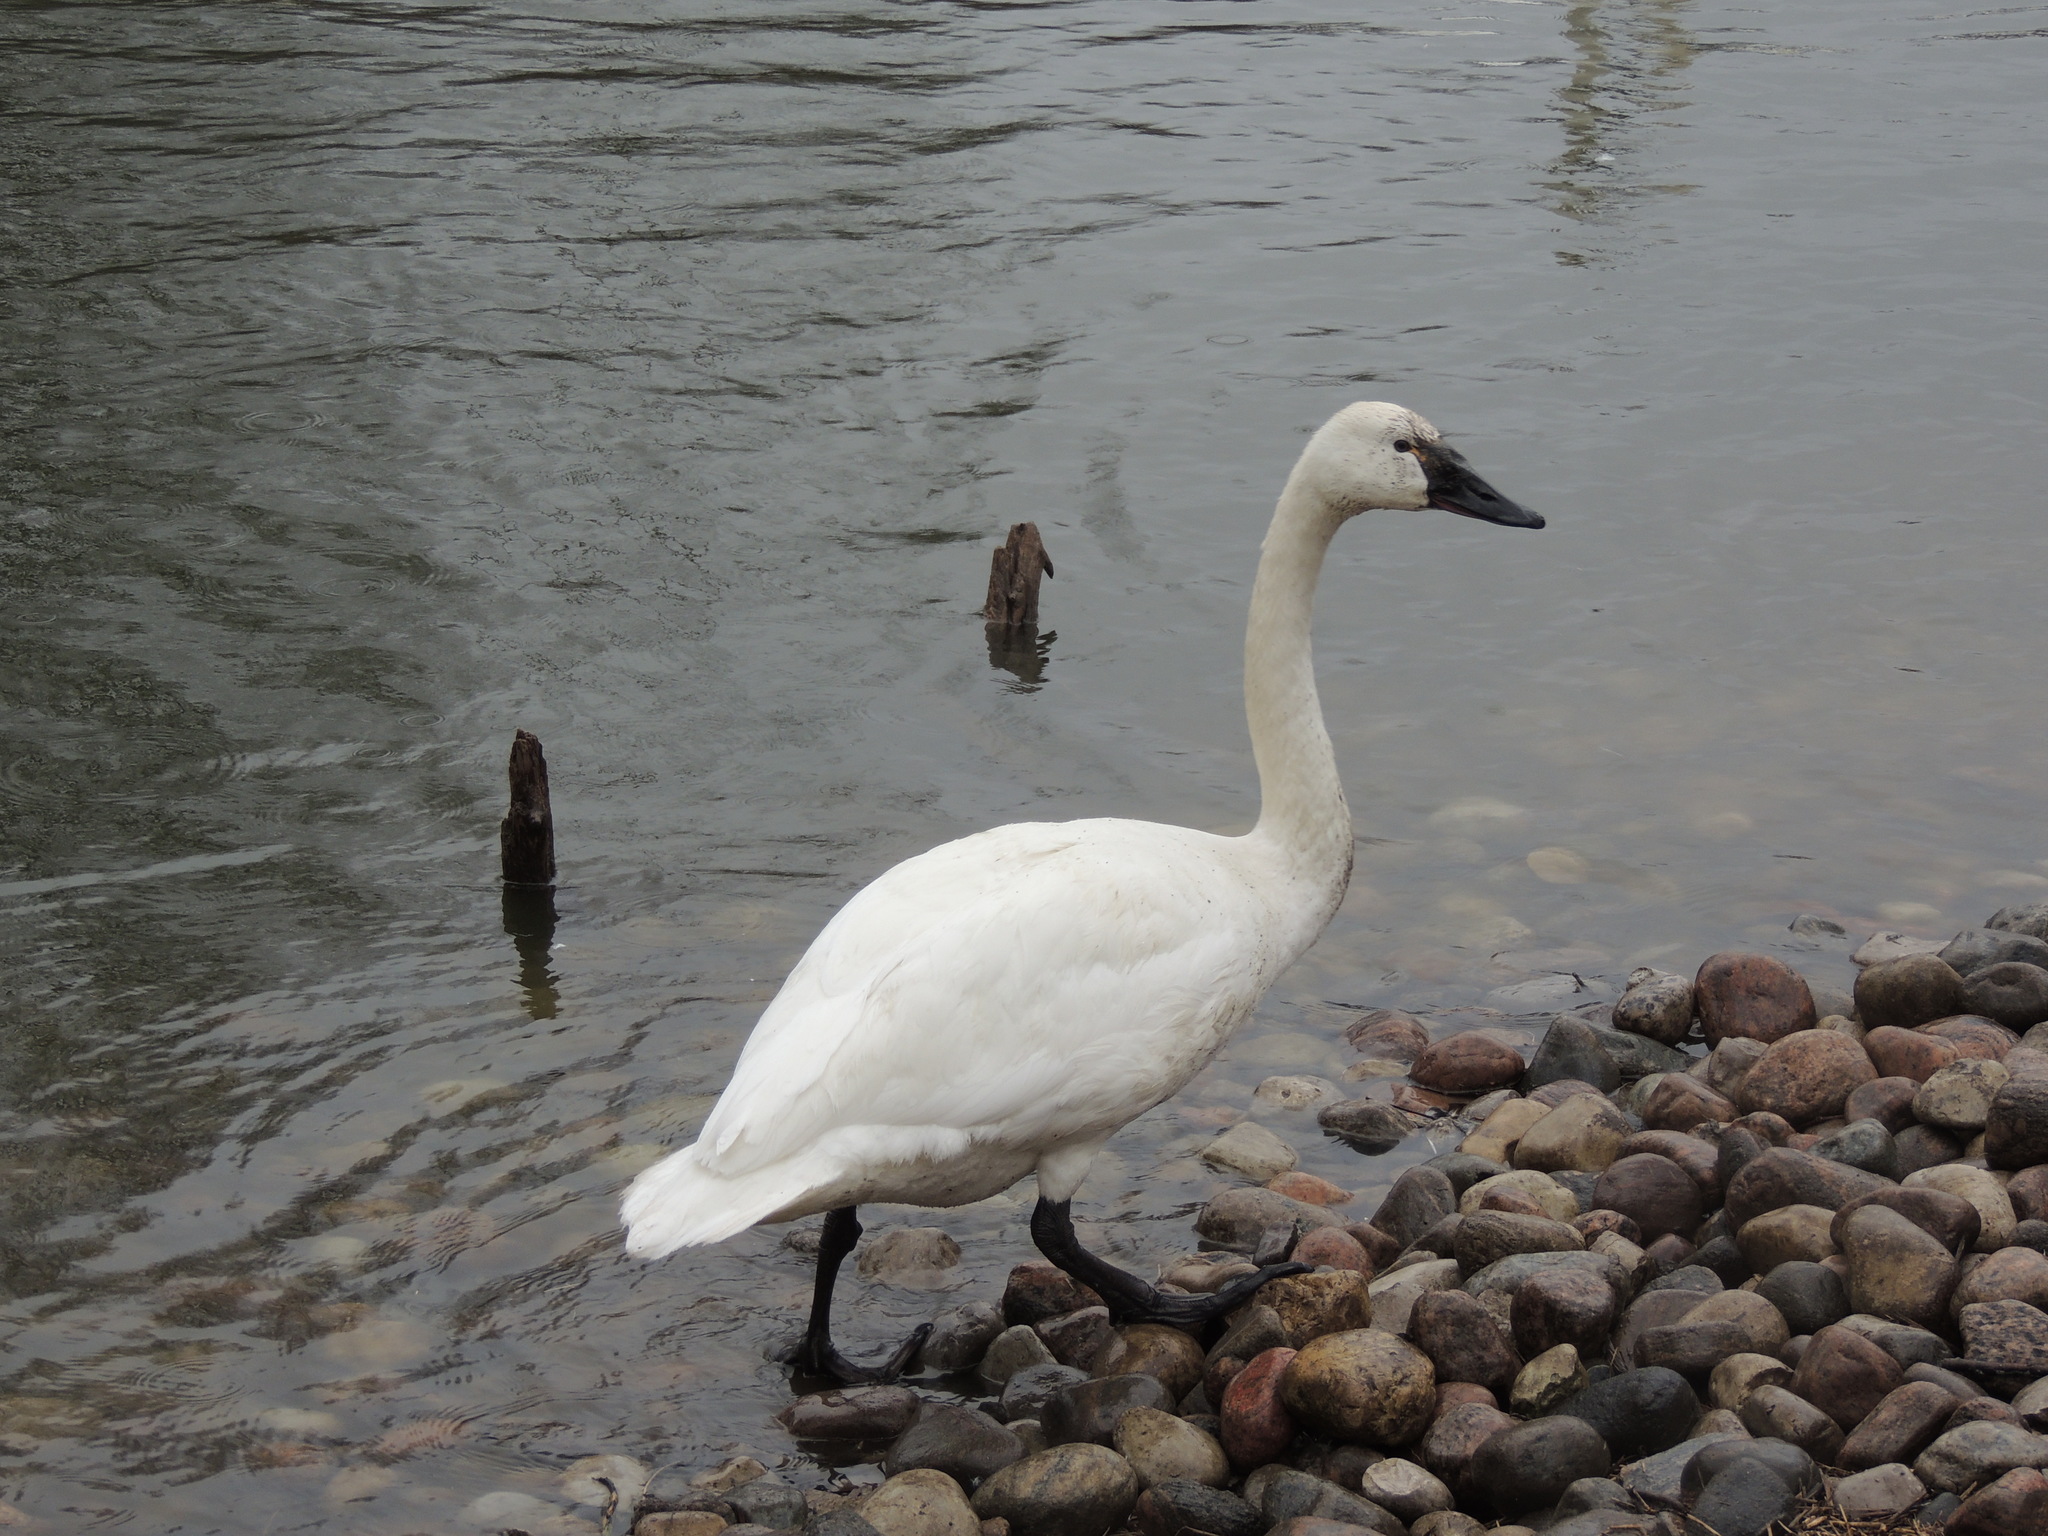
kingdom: Animalia
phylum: Chordata
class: Aves
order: Anseriformes
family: Anatidae
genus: Cygnus
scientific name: Cygnus columbianus
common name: Tundra swan
